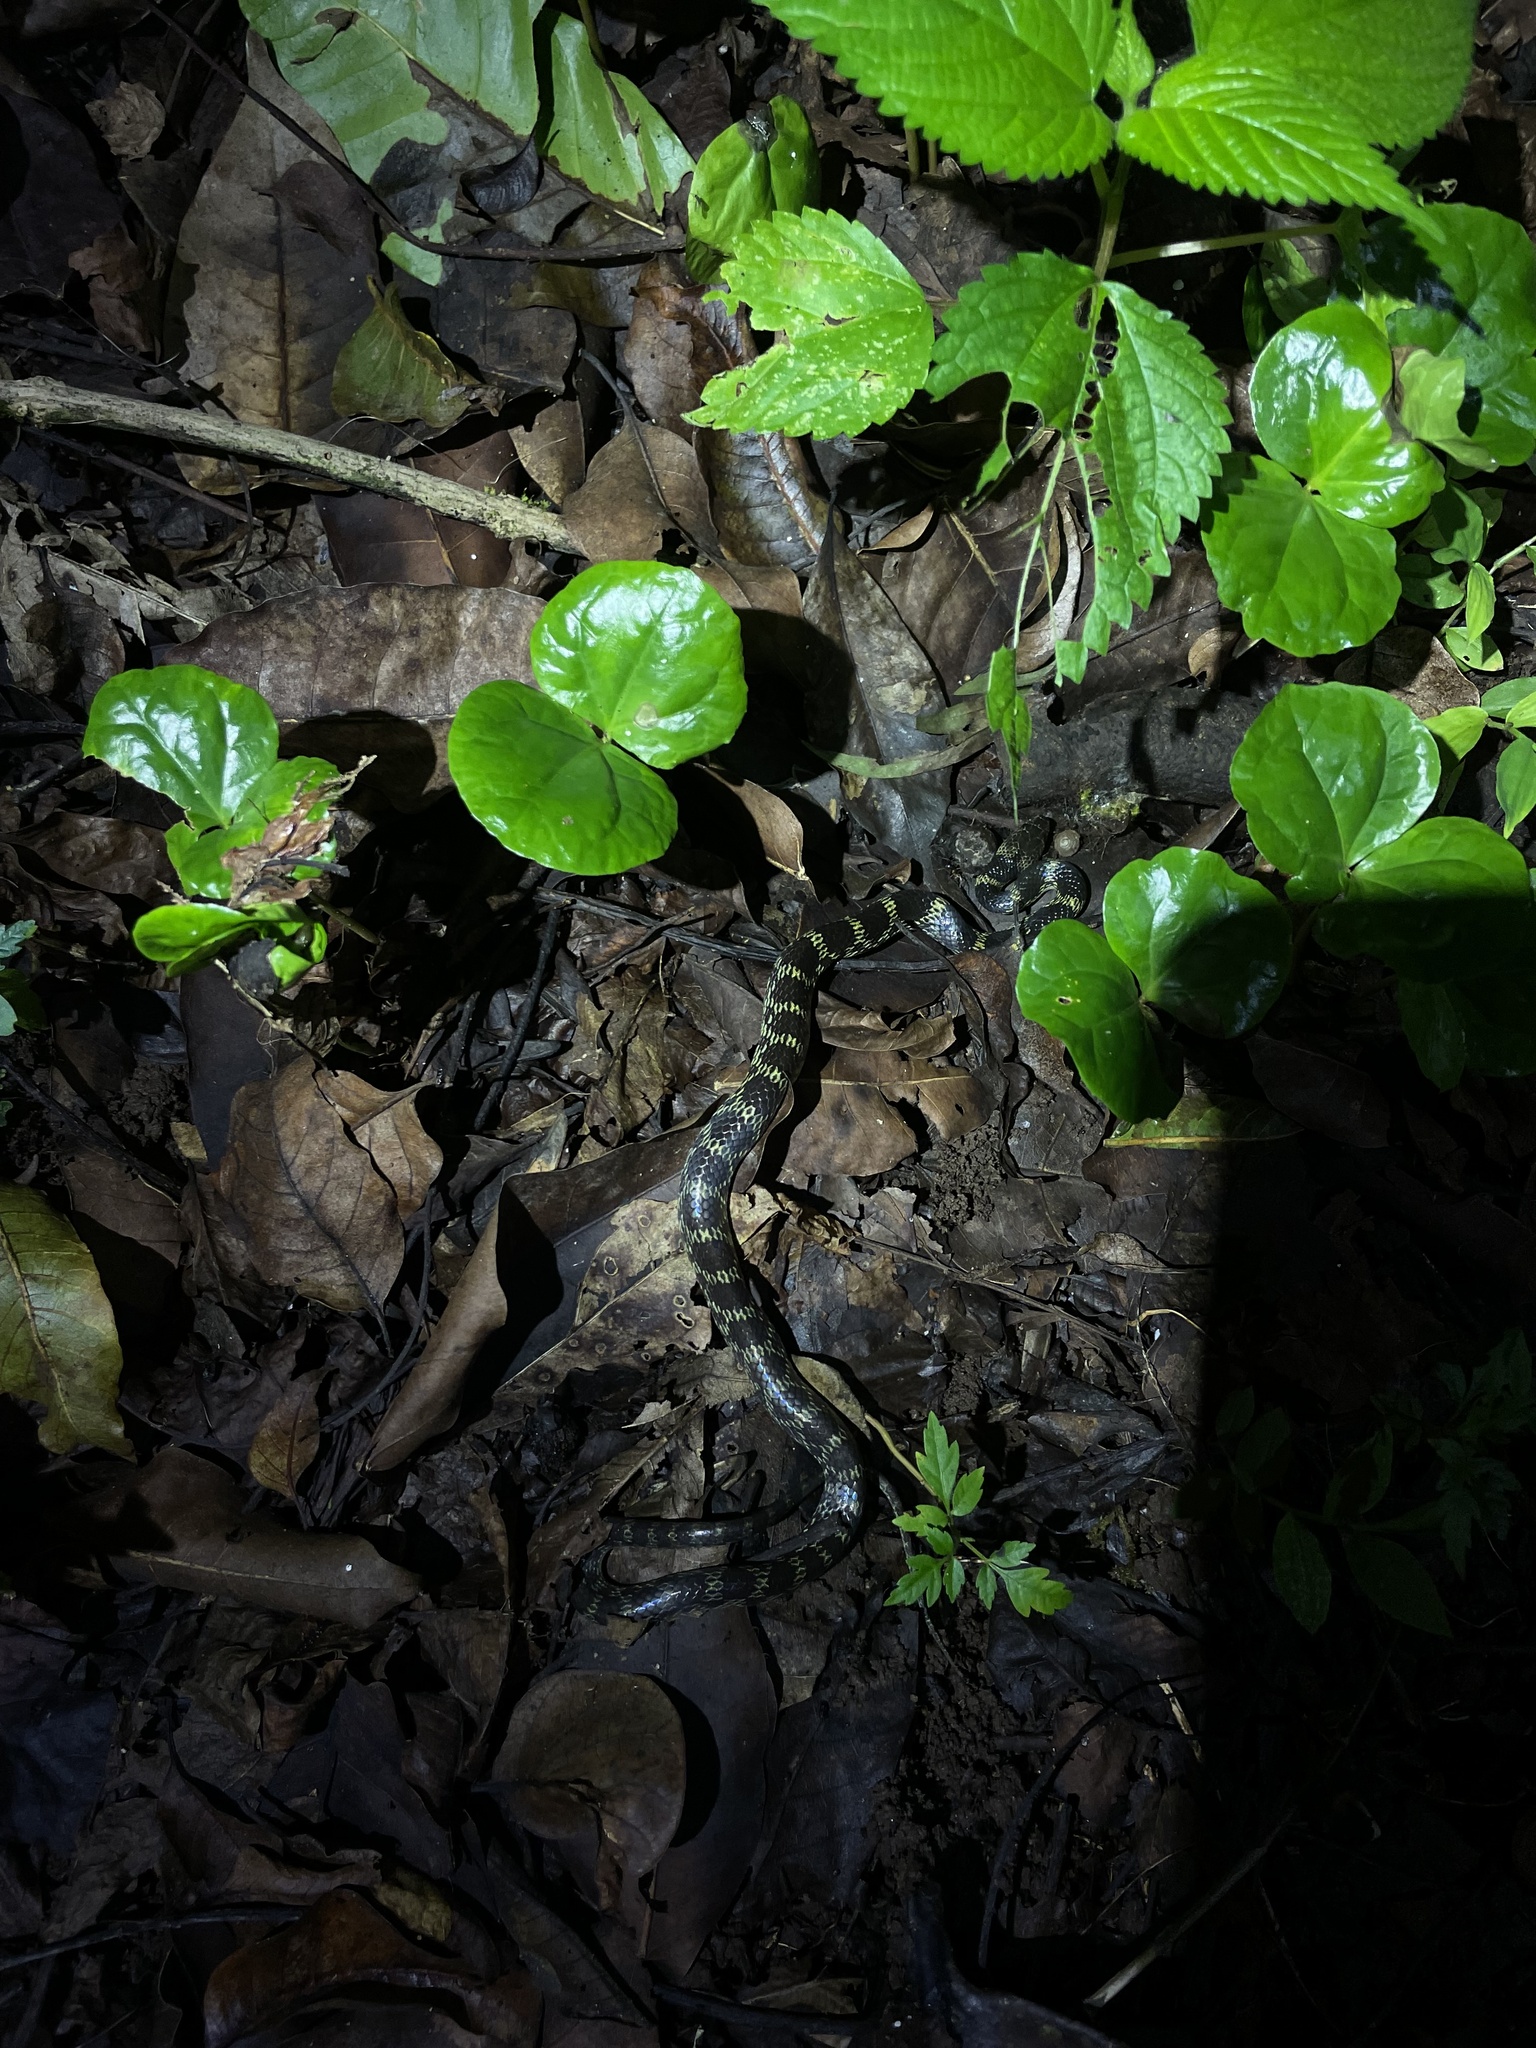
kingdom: Animalia
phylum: Chordata
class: Squamata
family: Colubridae
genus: Lycodon
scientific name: Lycodon travancoricus
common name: Travancore wolf snake
